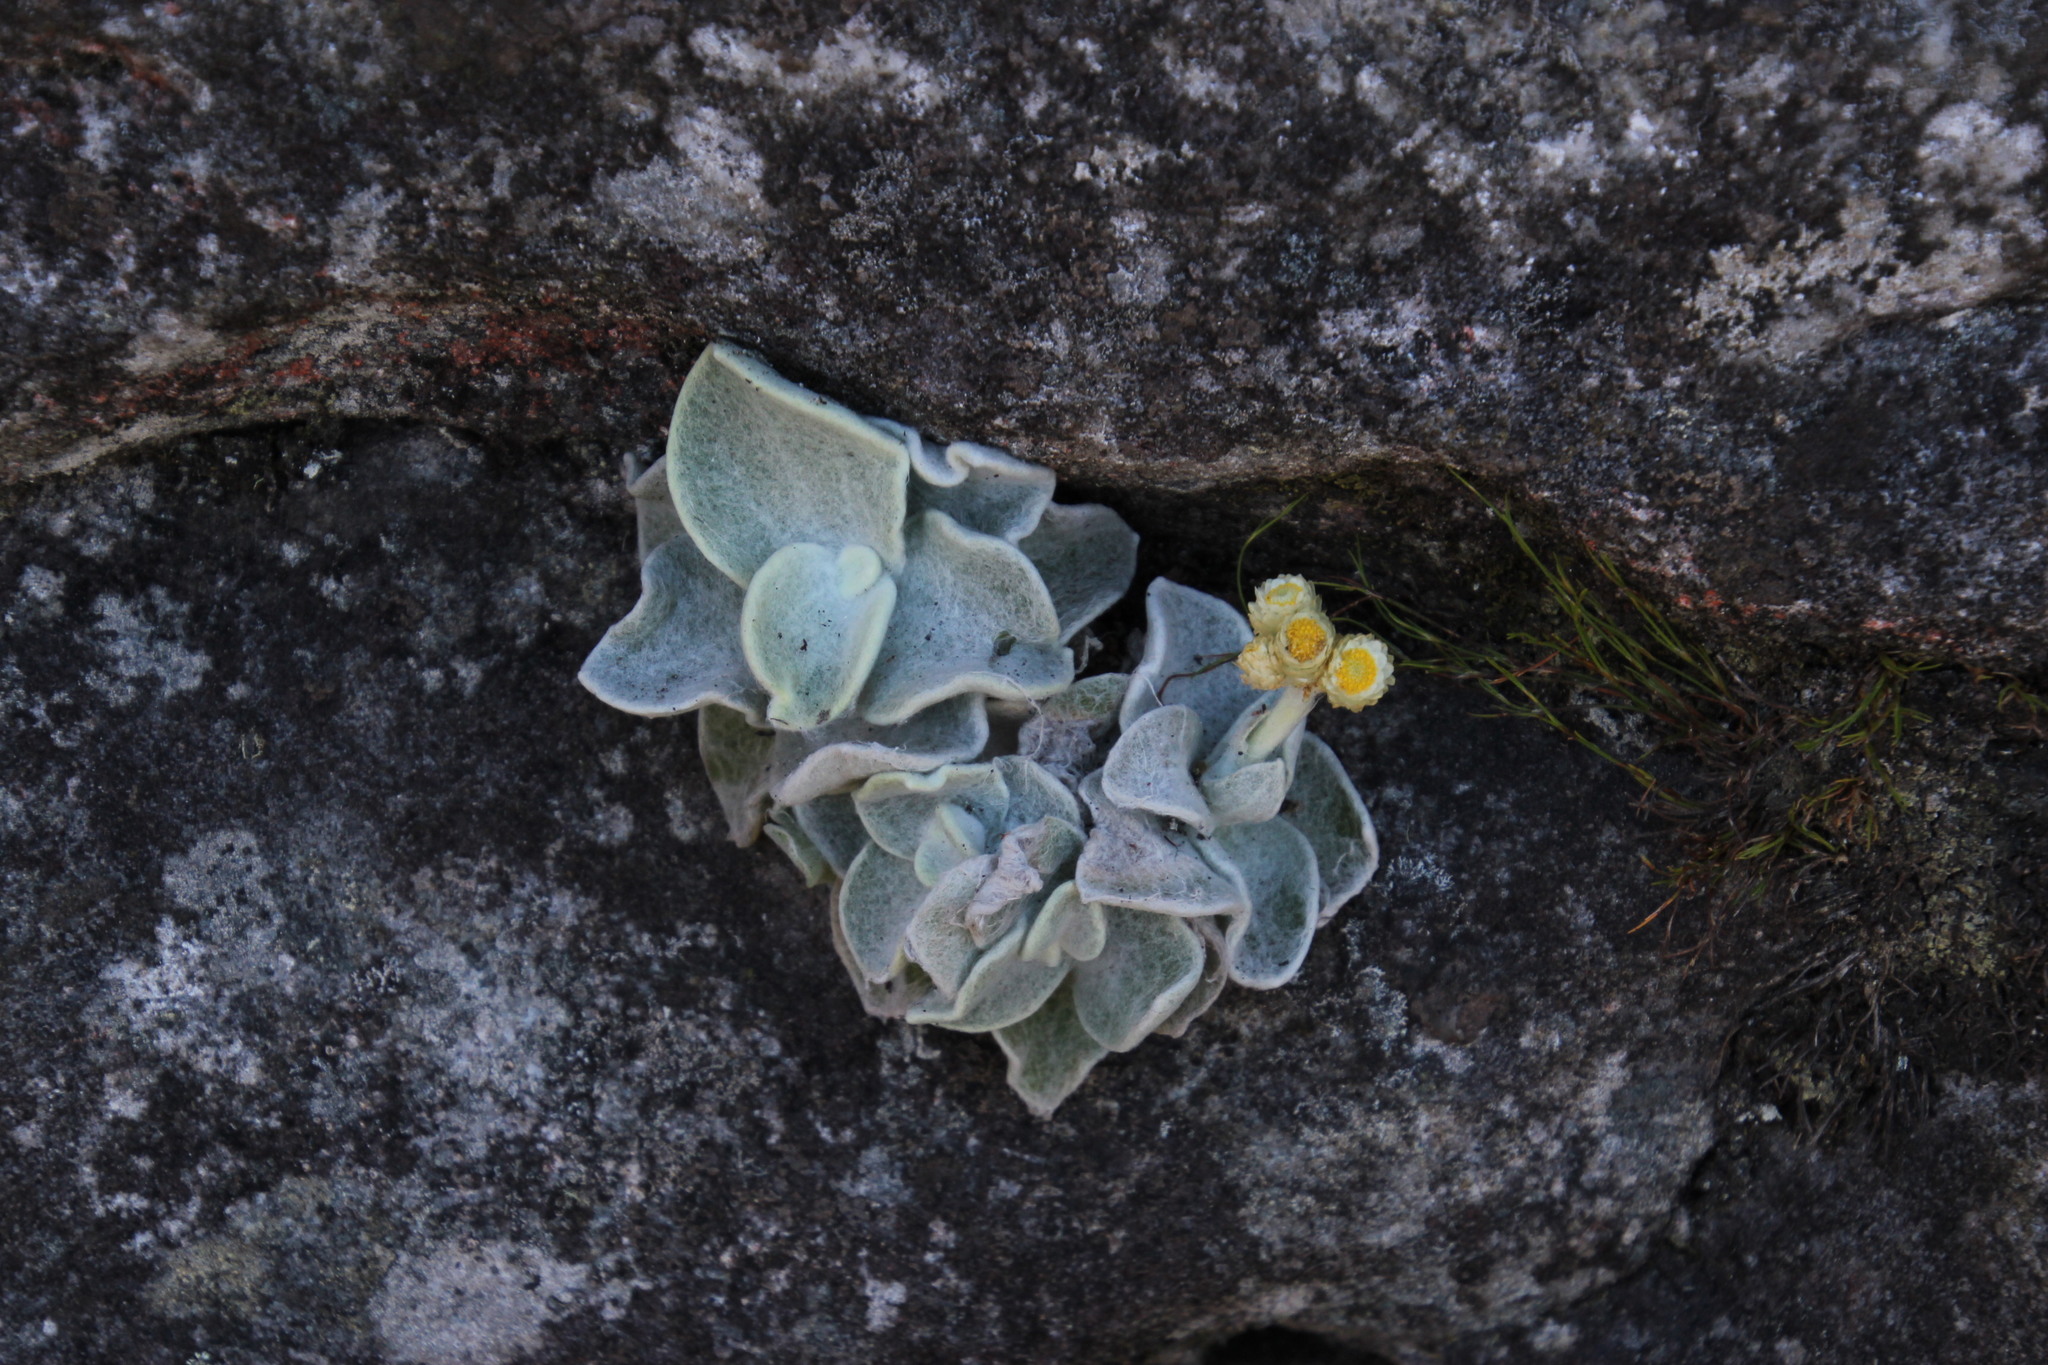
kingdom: Plantae
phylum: Tracheophyta
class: Magnoliopsida
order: Asterales
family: Asteraceae
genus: Helichrysum
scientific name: Helichrysum grandiflorum
